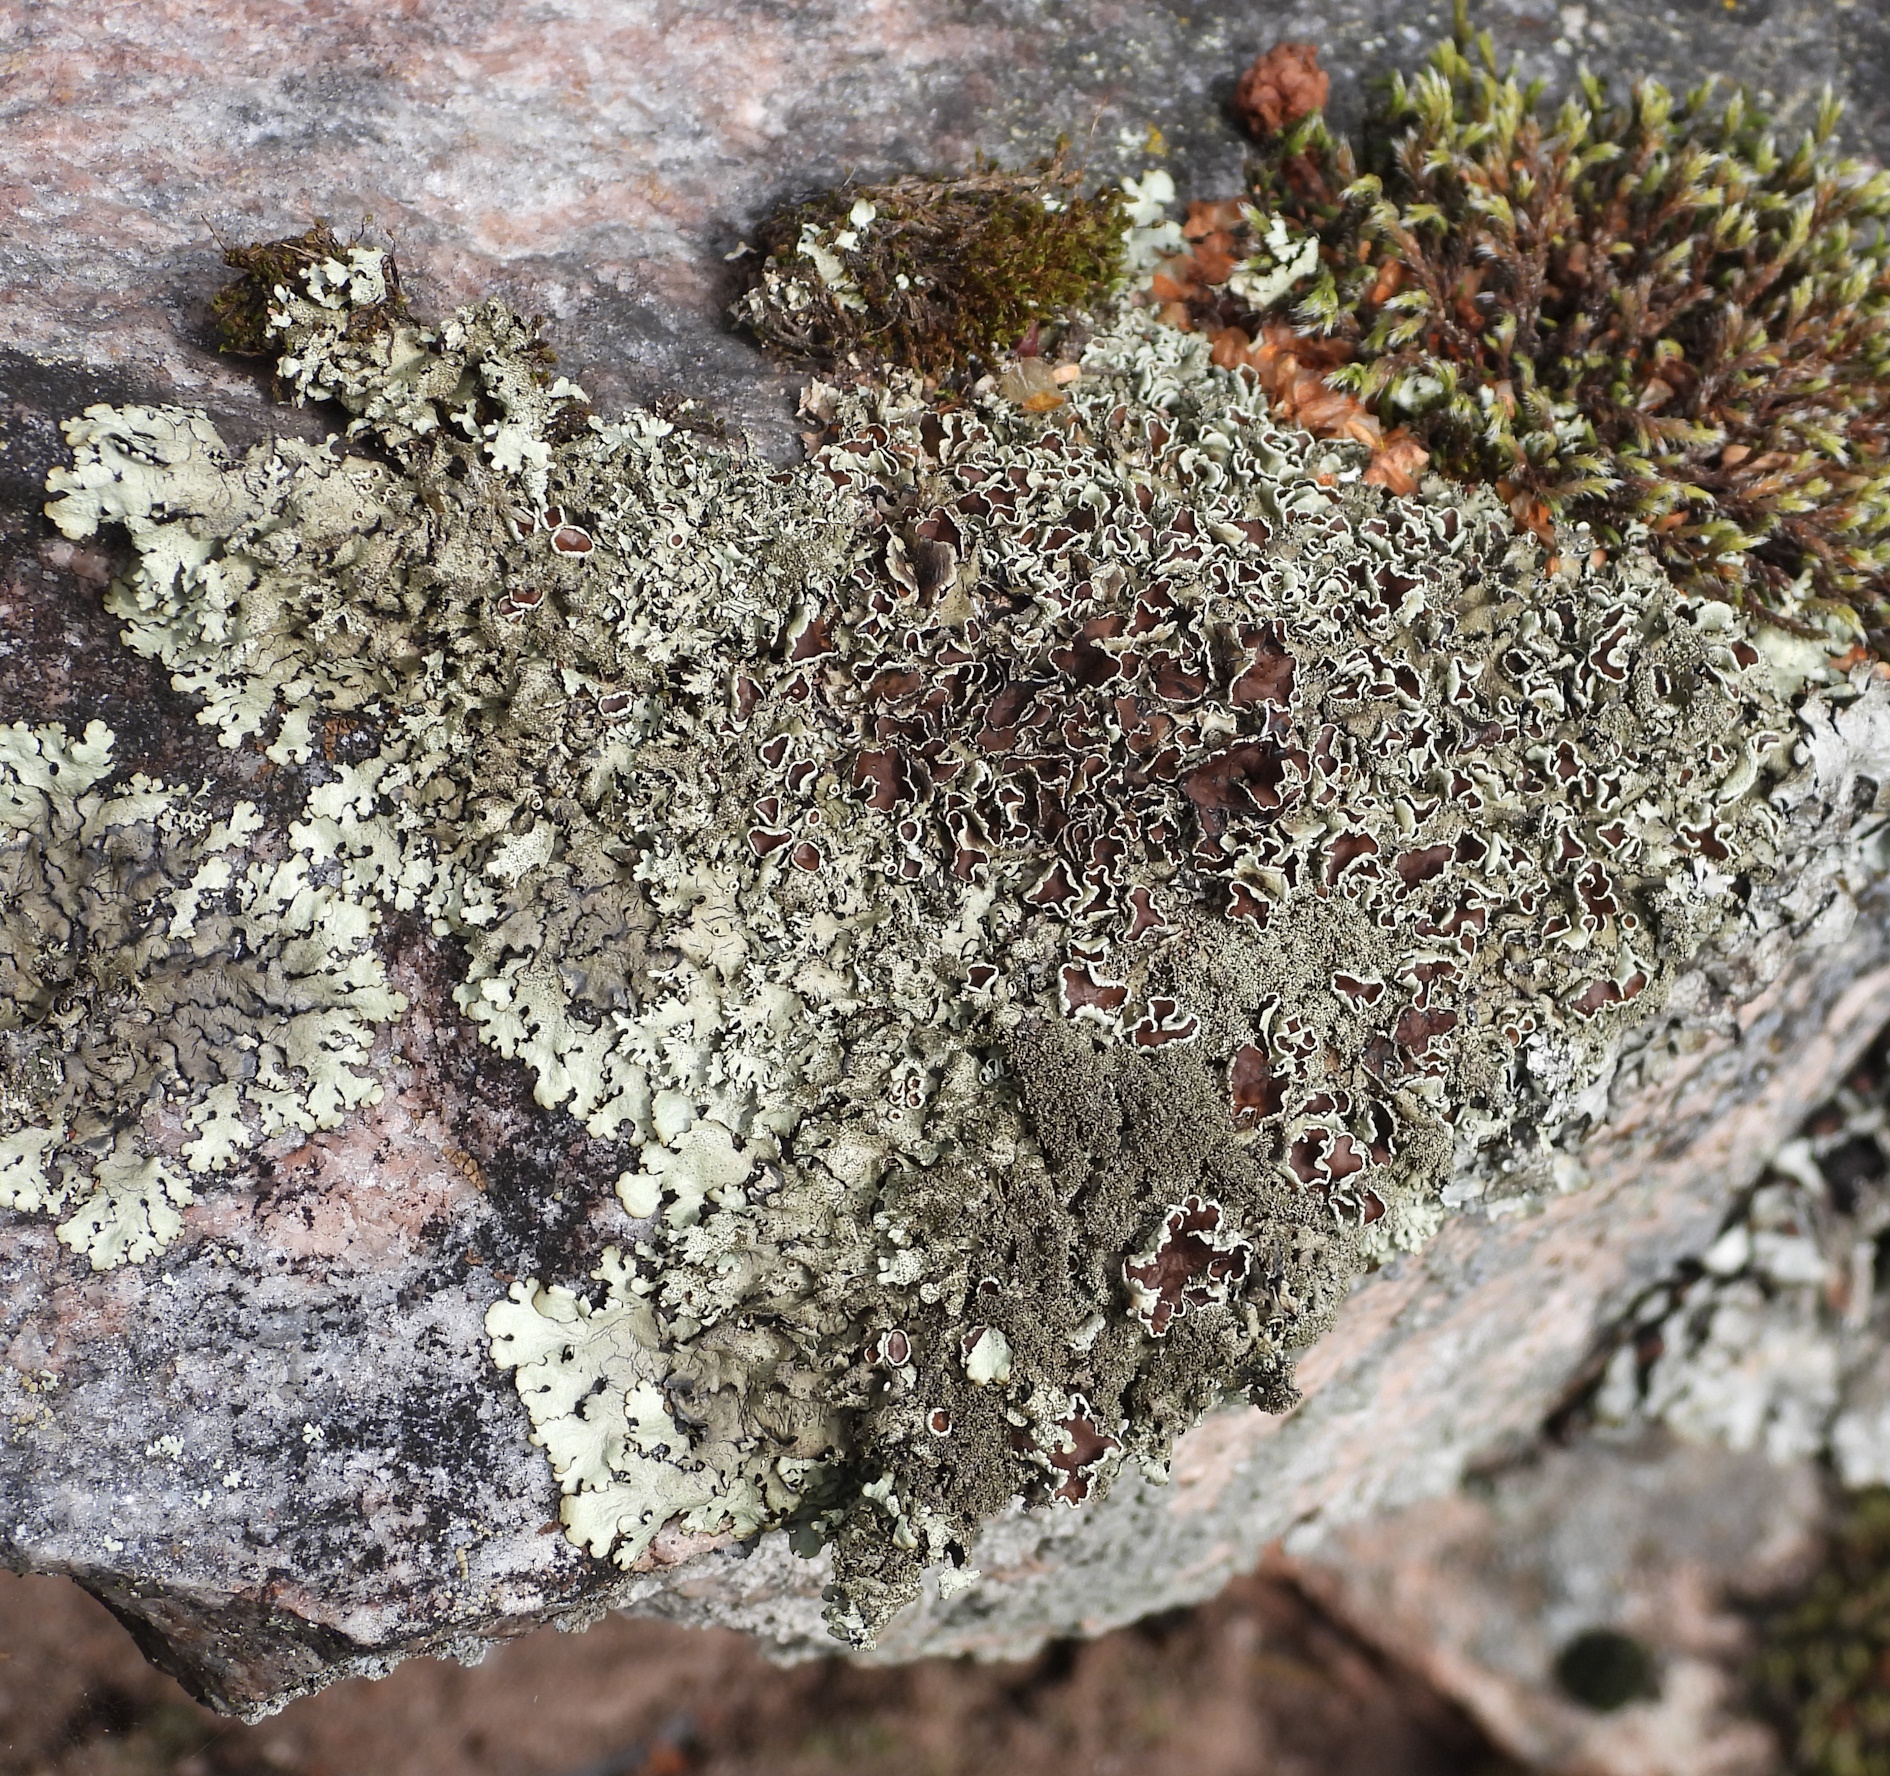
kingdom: Fungi
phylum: Ascomycota
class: Lecanoromycetes
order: Lecanorales
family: Parmeliaceae
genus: Xanthoparmelia
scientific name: Xanthoparmelia conspersa
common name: Peppered rock shield
